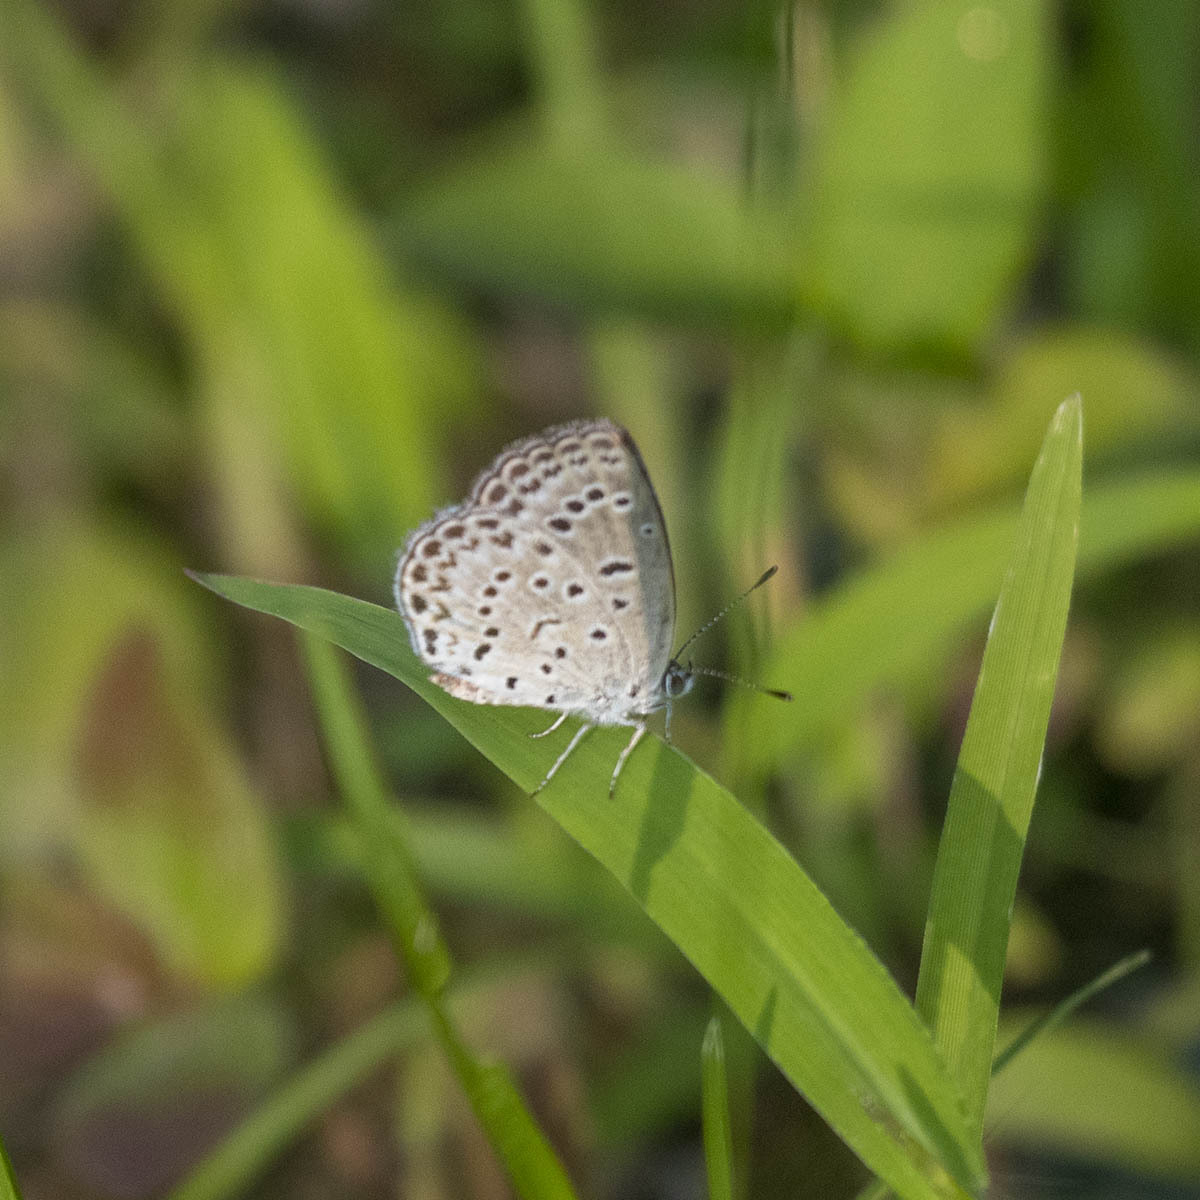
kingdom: Animalia
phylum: Arthropoda
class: Insecta
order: Lepidoptera
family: Lycaenidae
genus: Pseudozizeeria
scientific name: Pseudozizeeria maha
